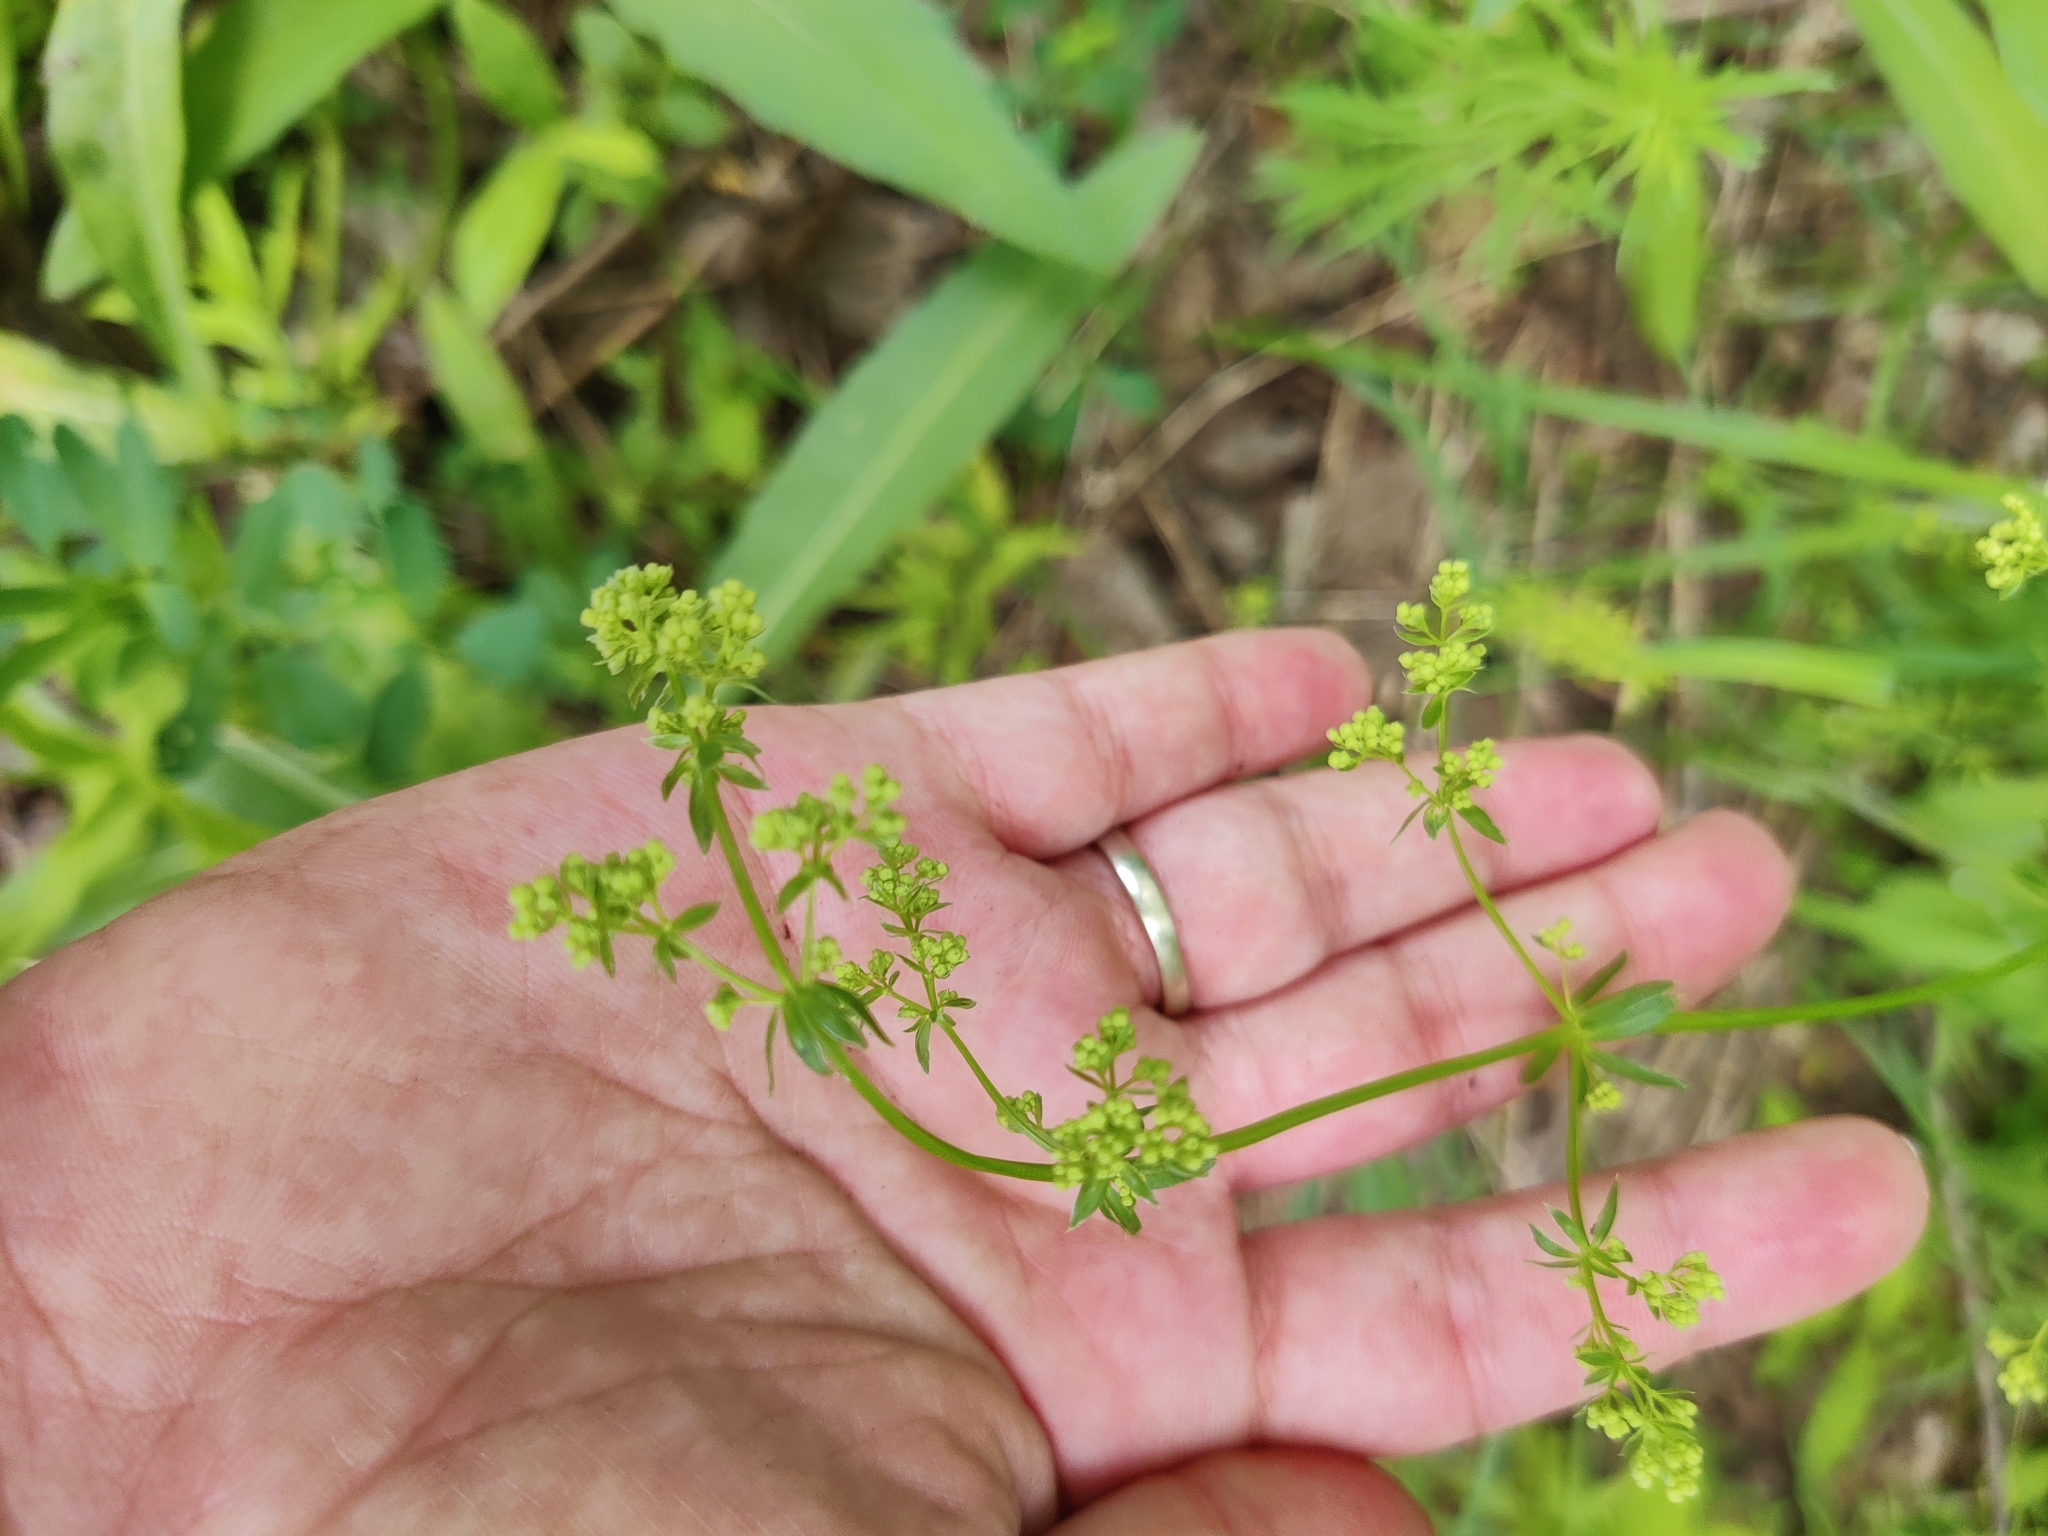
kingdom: Plantae
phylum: Tracheophyta
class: Magnoliopsida
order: Gentianales
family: Rubiaceae
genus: Galium
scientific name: Galium mollugo
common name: Hedge bedstraw
